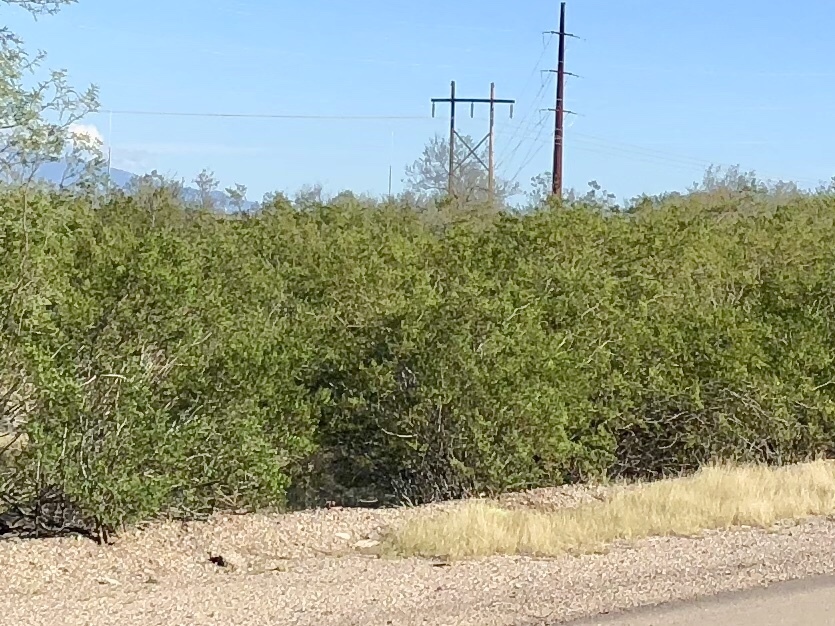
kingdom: Plantae
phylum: Tracheophyta
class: Magnoliopsida
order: Zygophyllales
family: Zygophyllaceae
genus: Larrea
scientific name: Larrea tridentata
